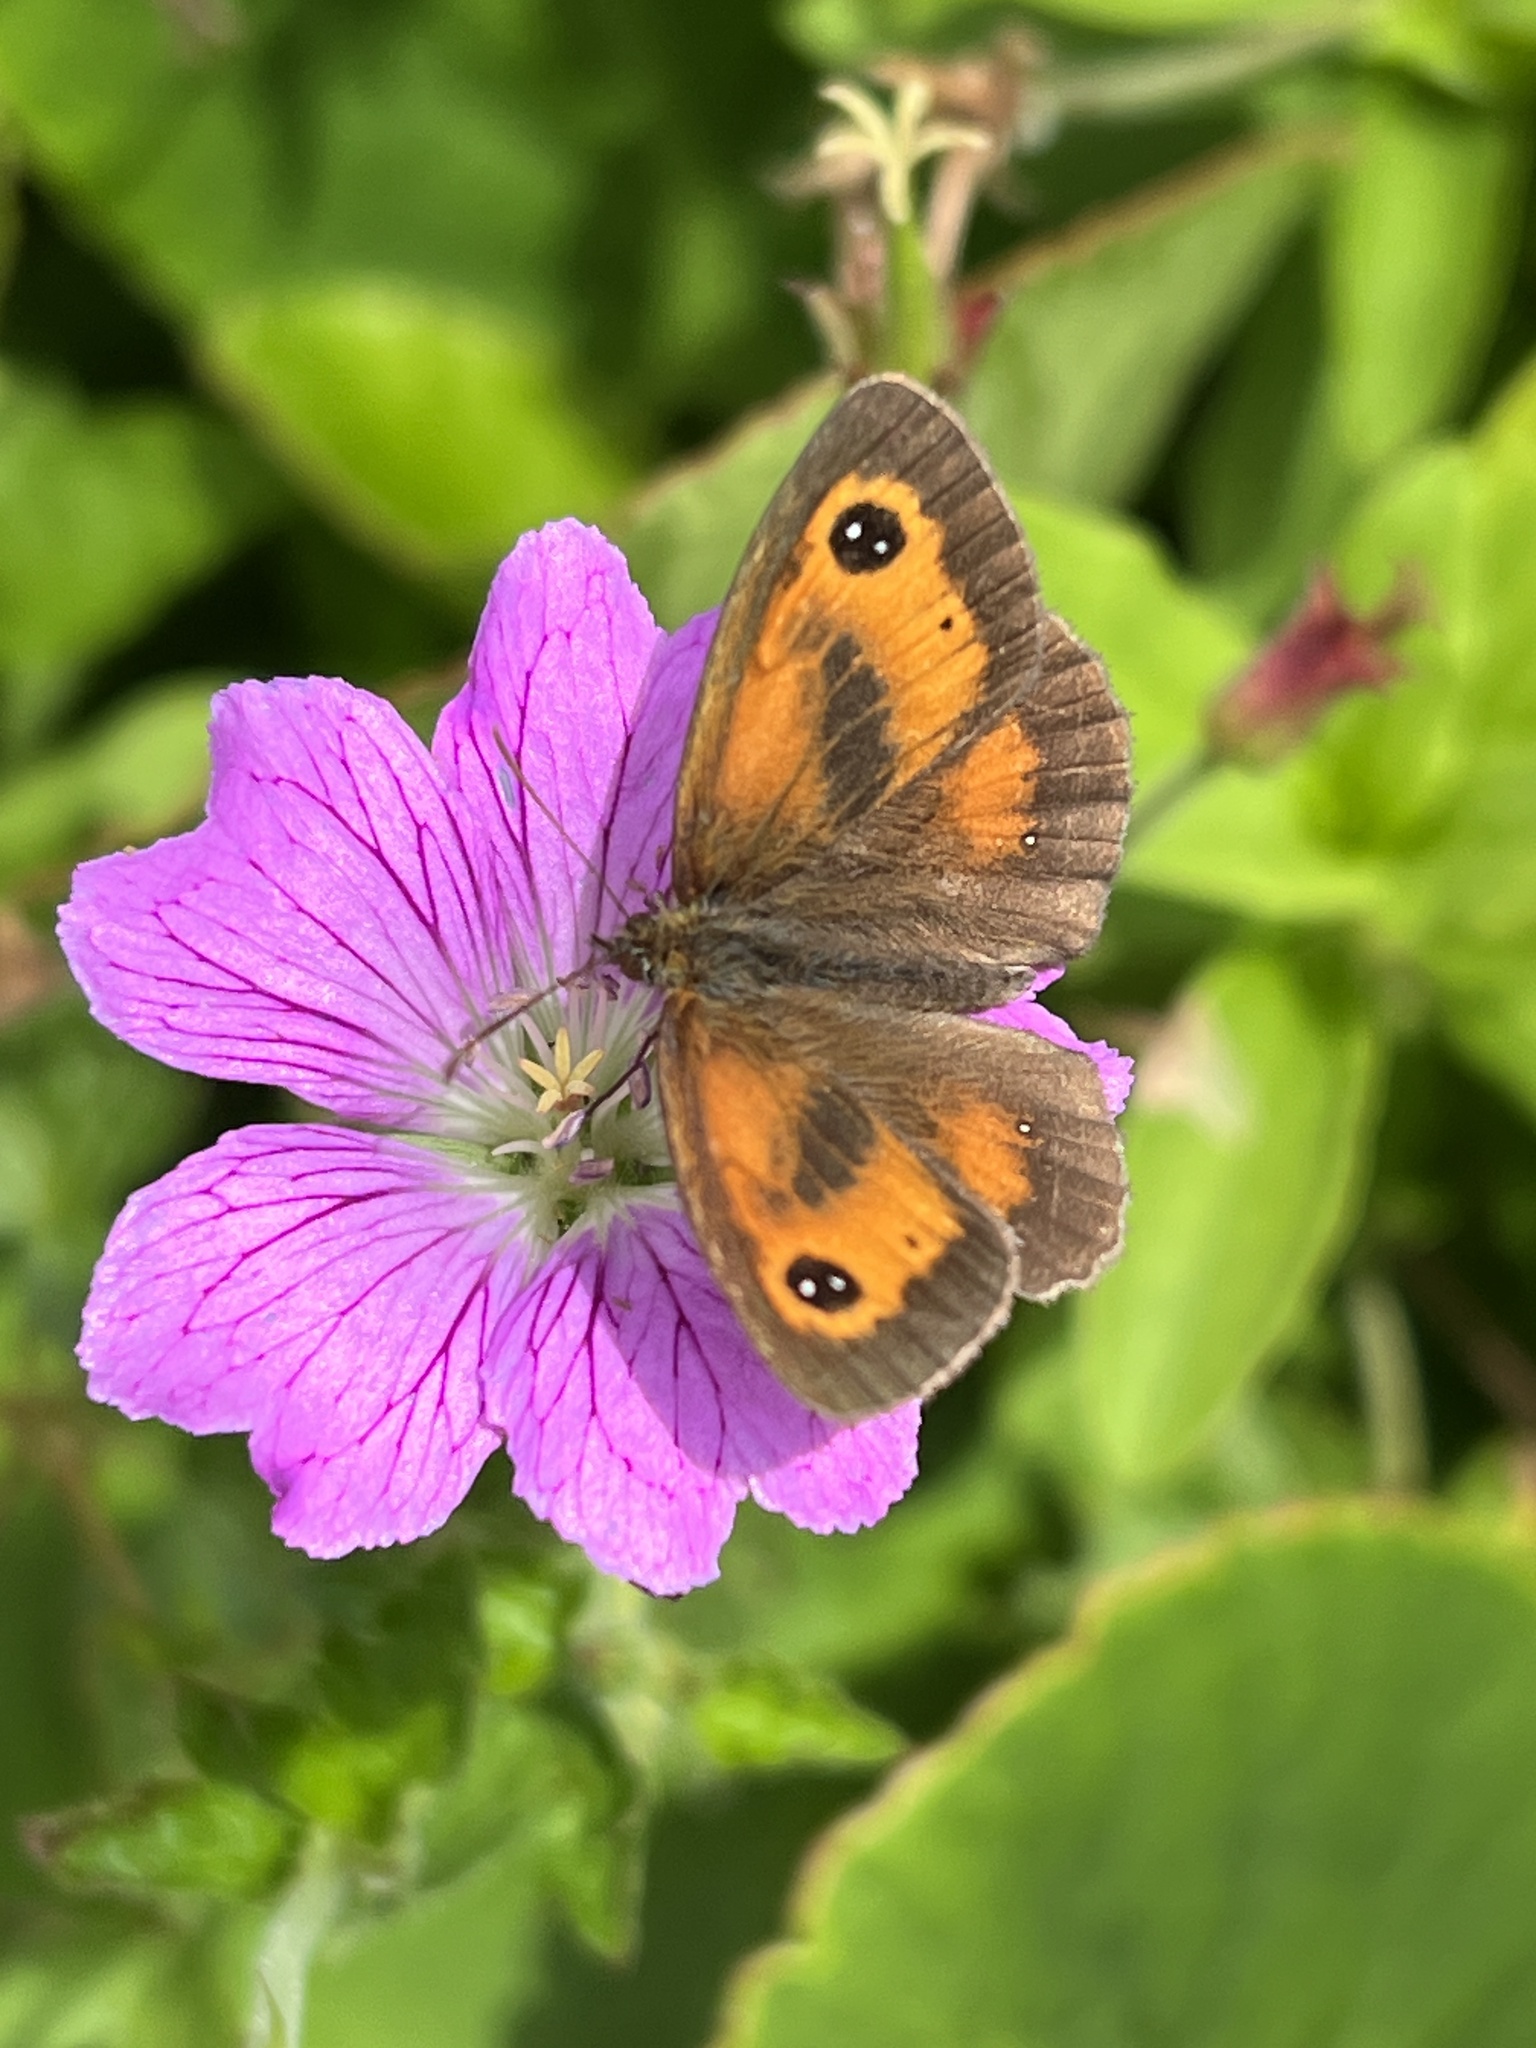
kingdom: Animalia
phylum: Arthropoda
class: Insecta
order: Lepidoptera
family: Nymphalidae
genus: Pyronia
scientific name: Pyronia tithonus
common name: Gatekeeper
